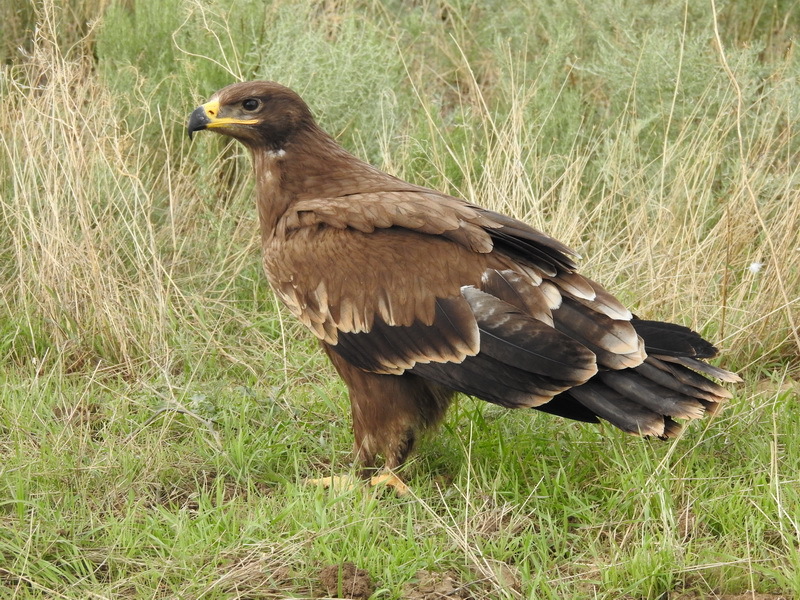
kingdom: Animalia
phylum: Chordata
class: Aves
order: Accipitriformes
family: Accipitridae
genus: Aquila
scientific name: Aquila nipalensis
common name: Steppe eagle
